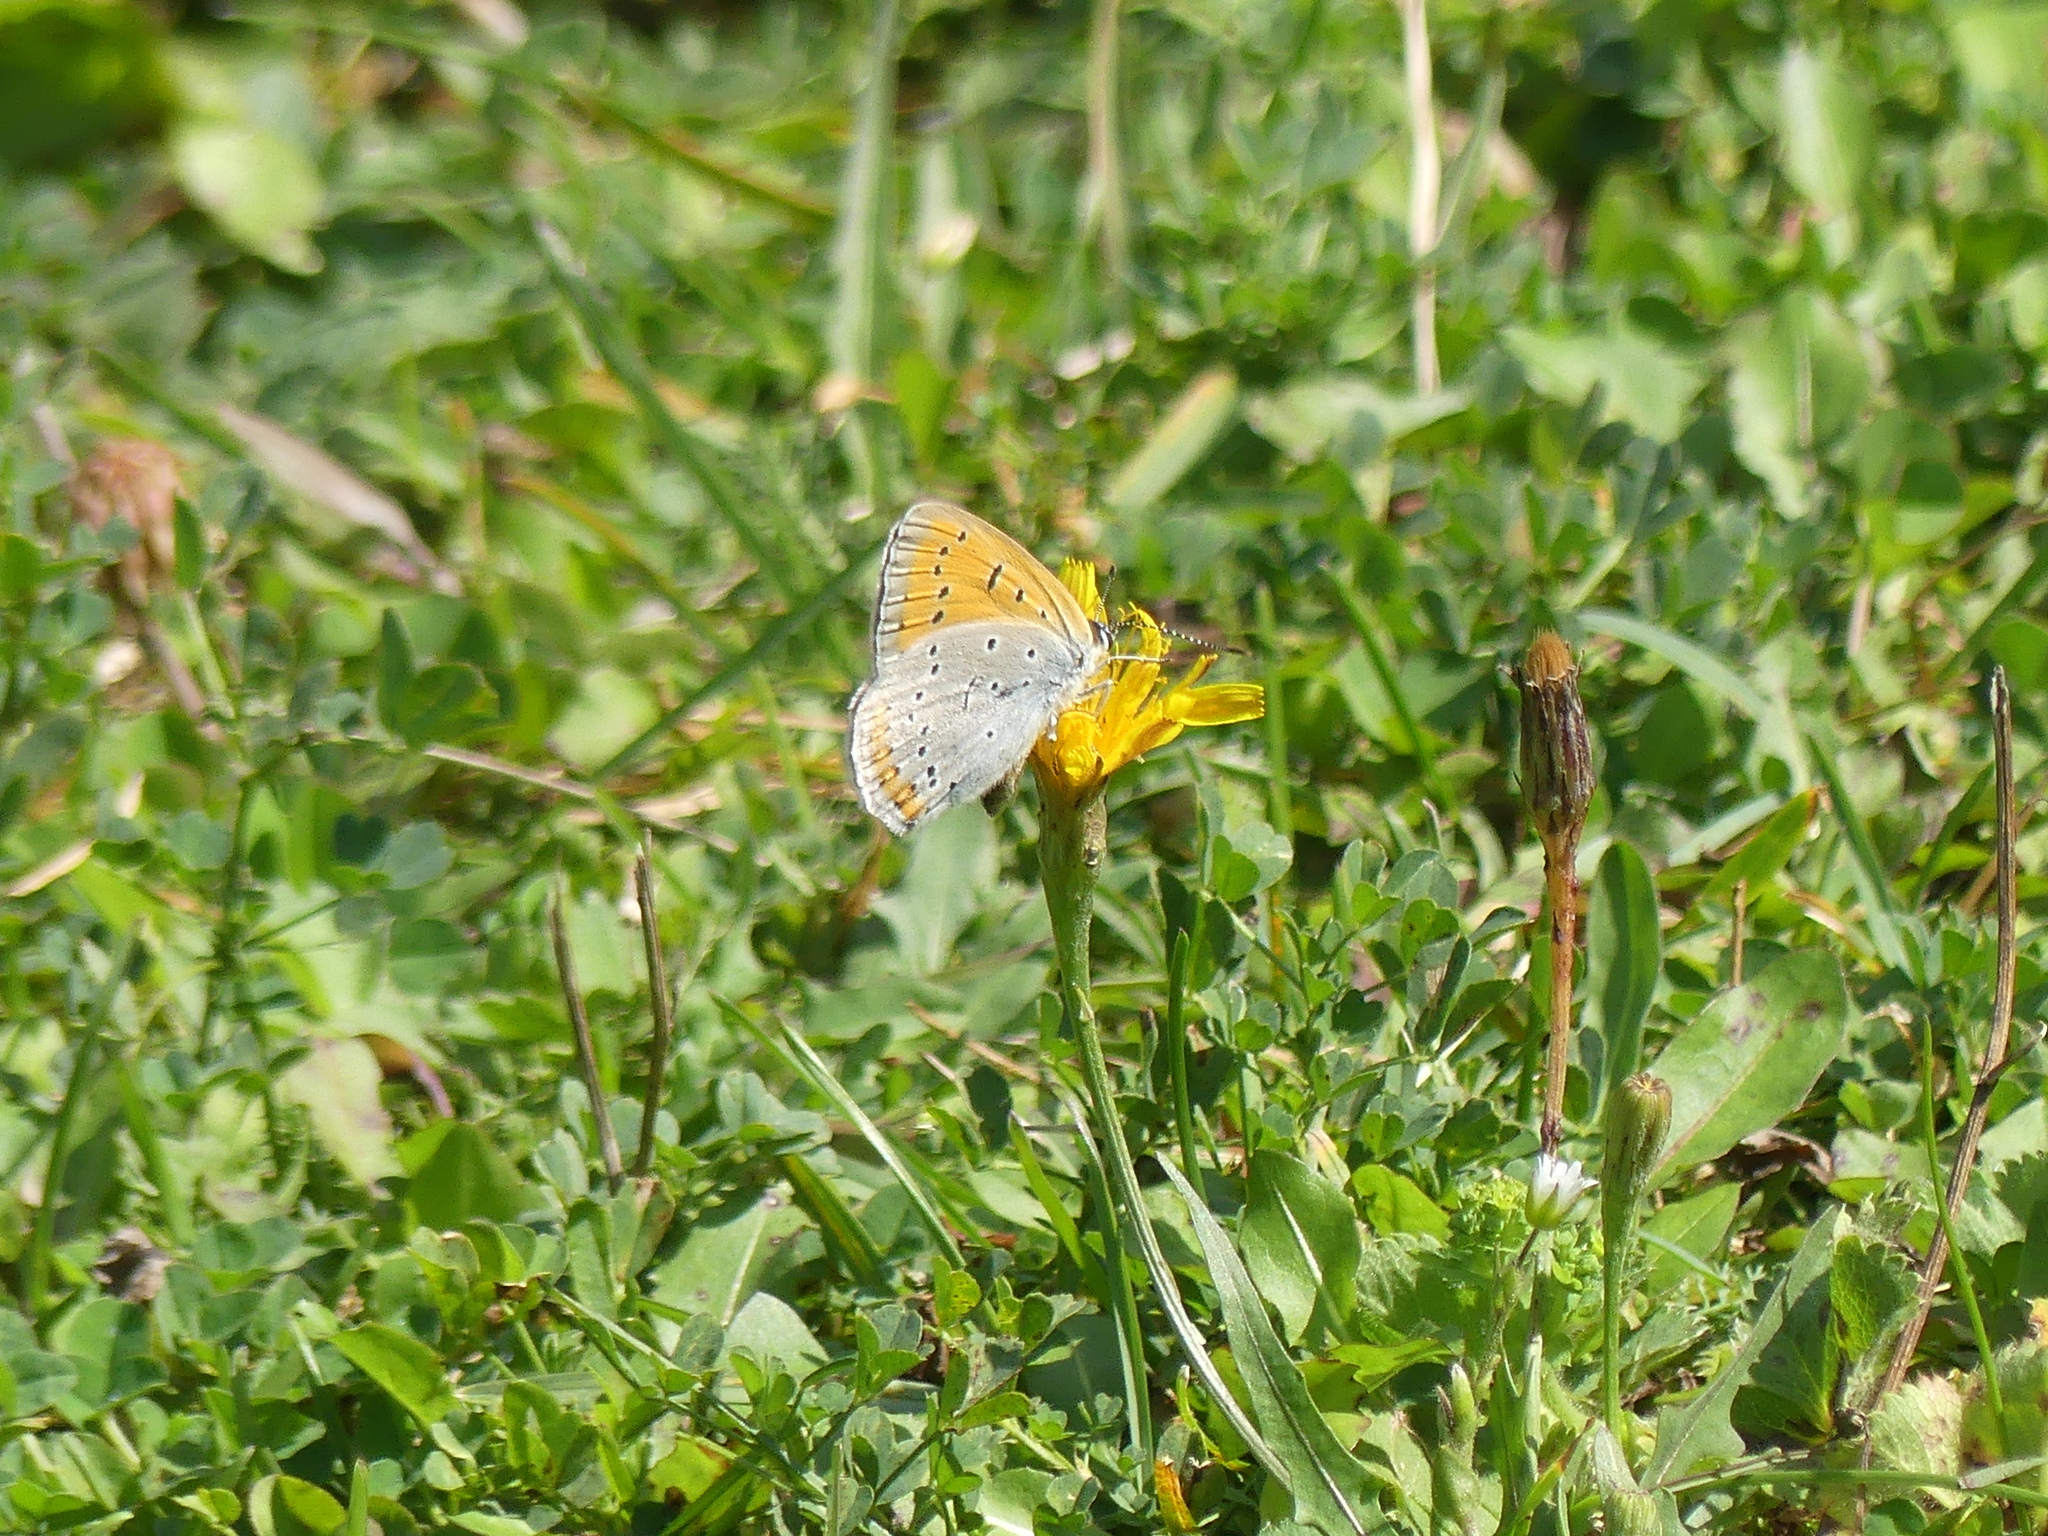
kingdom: Animalia
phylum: Arthropoda
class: Insecta
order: Lepidoptera
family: Lycaenidae
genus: Lycaena
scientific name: Lycaena dispar
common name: Large copper
